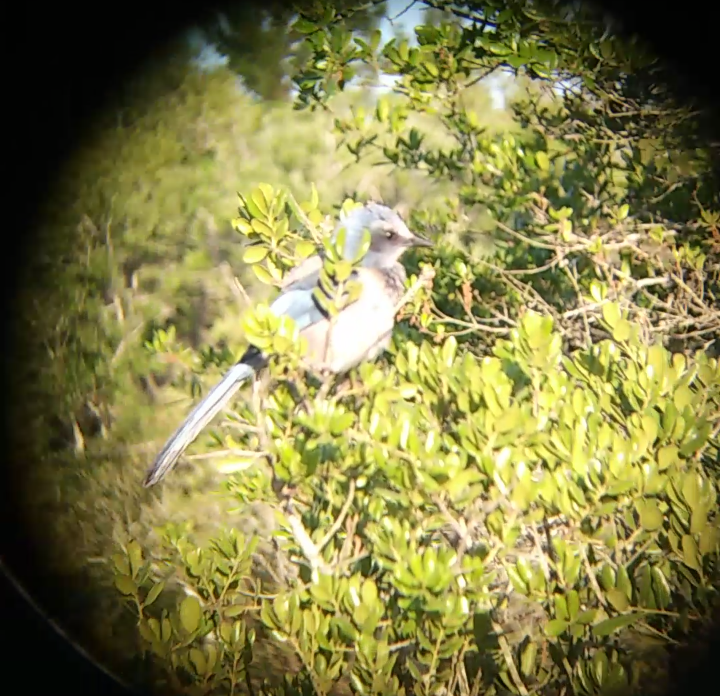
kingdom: Animalia
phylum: Chordata
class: Aves
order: Passeriformes
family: Corvidae
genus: Aphelocoma
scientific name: Aphelocoma coerulescens
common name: Florida scrub jay
